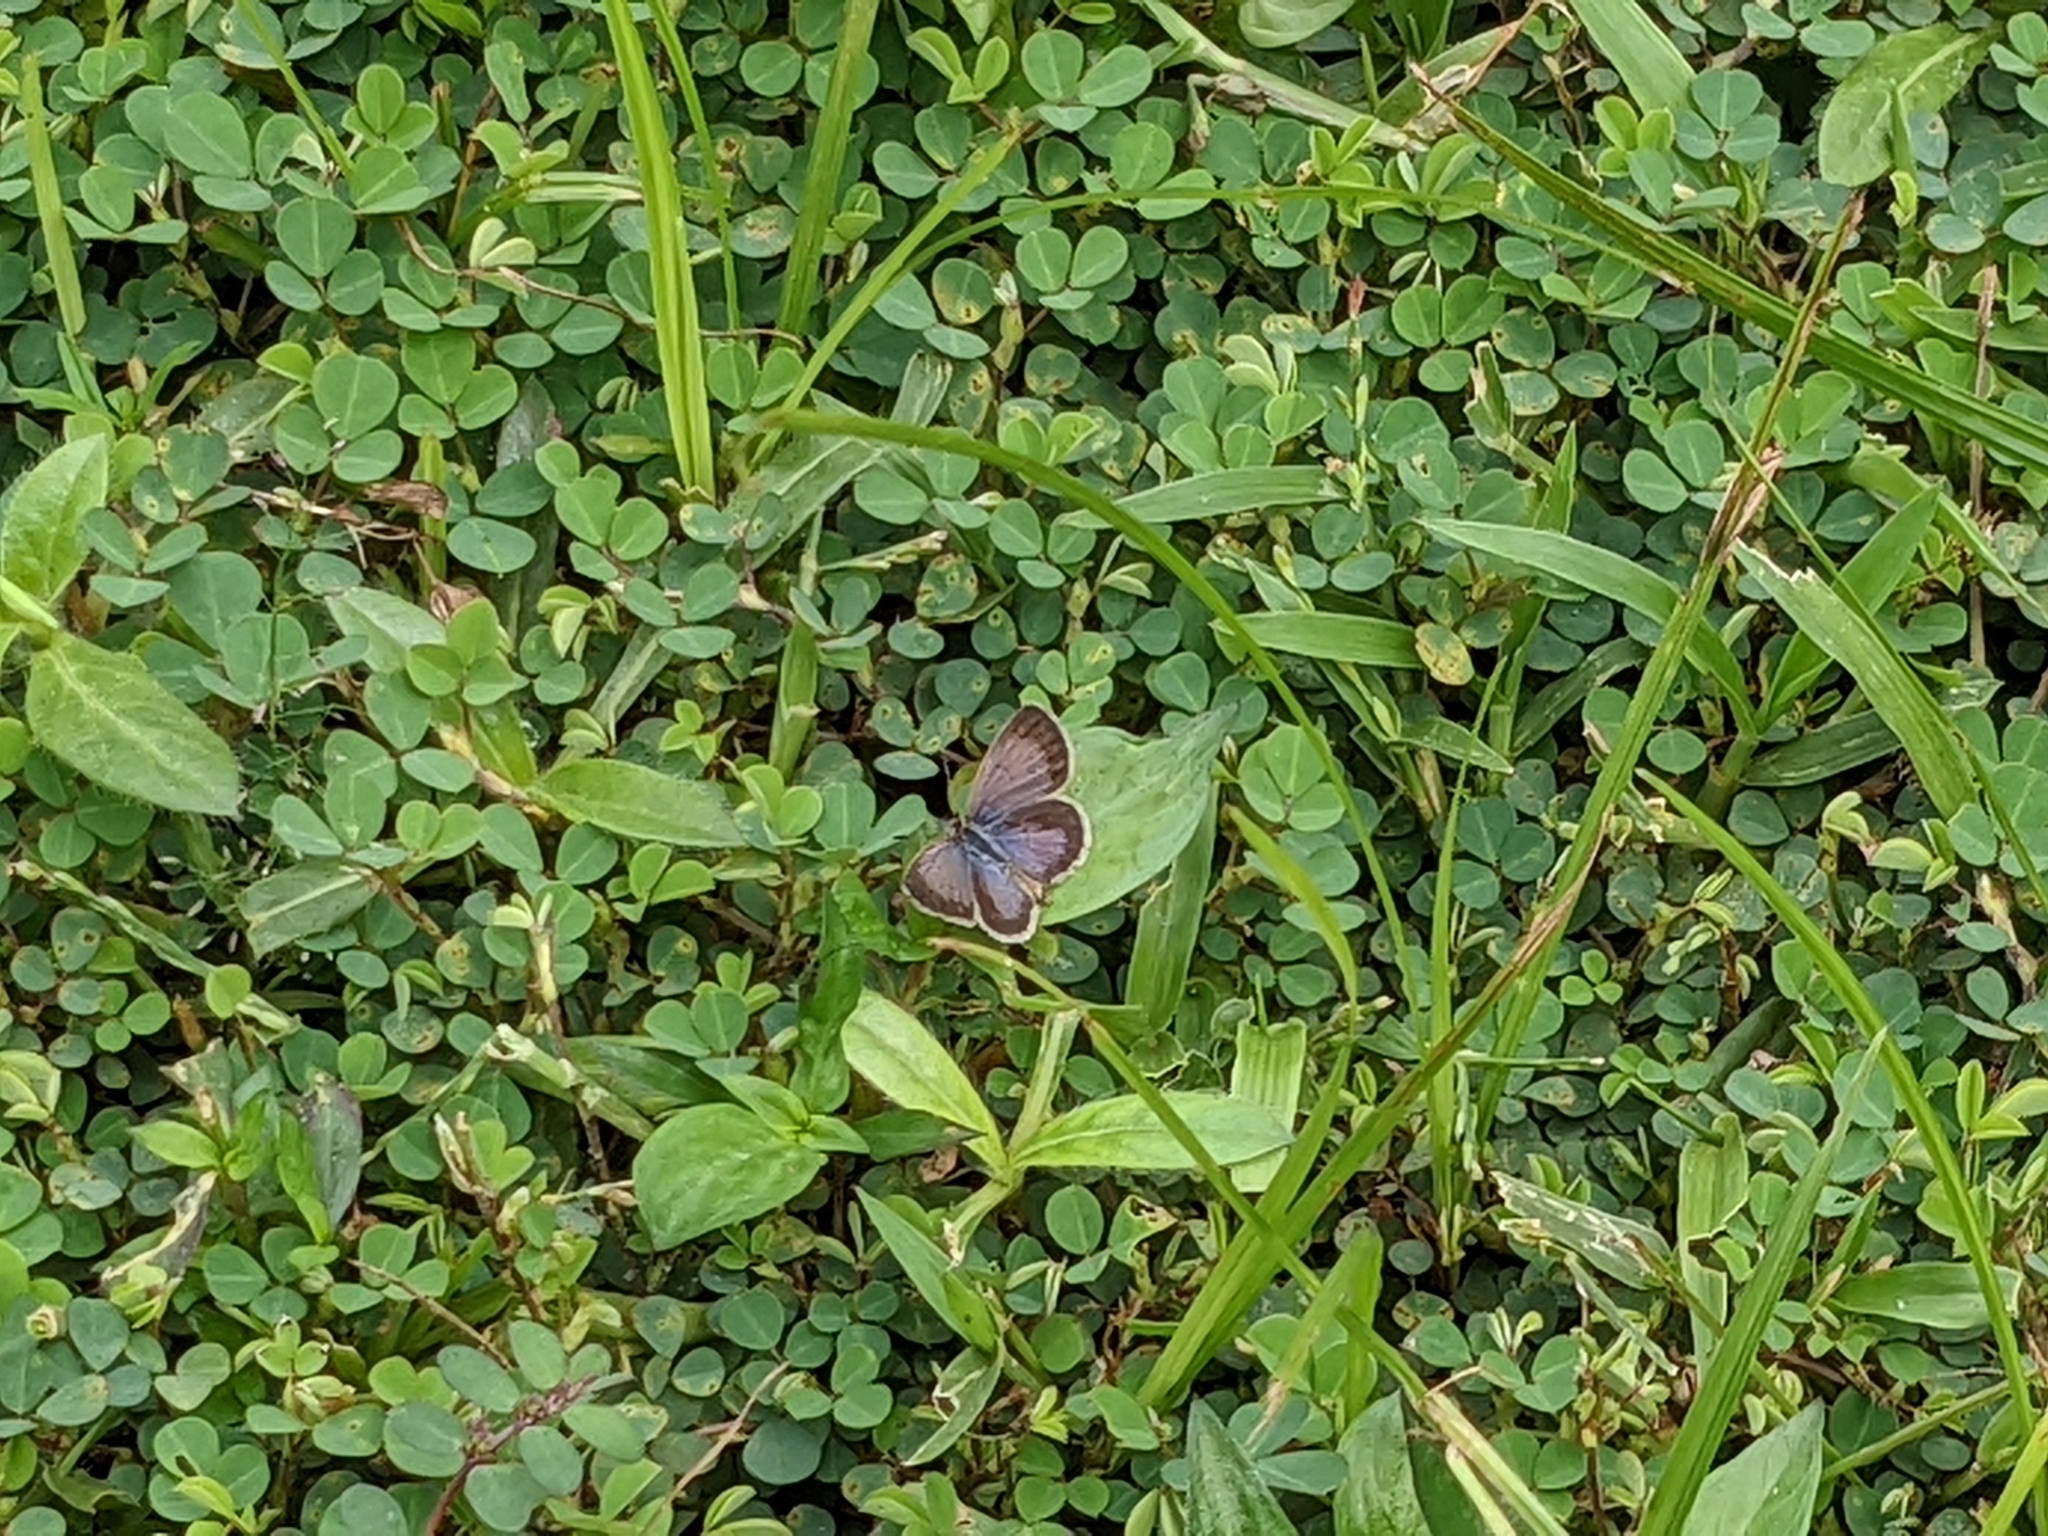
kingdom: Animalia
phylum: Arthropoda
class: Insecta
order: Lepidoptera
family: Lycaenidae
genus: Zizeeria
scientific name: Zizeeria knysna
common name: African grass blue
